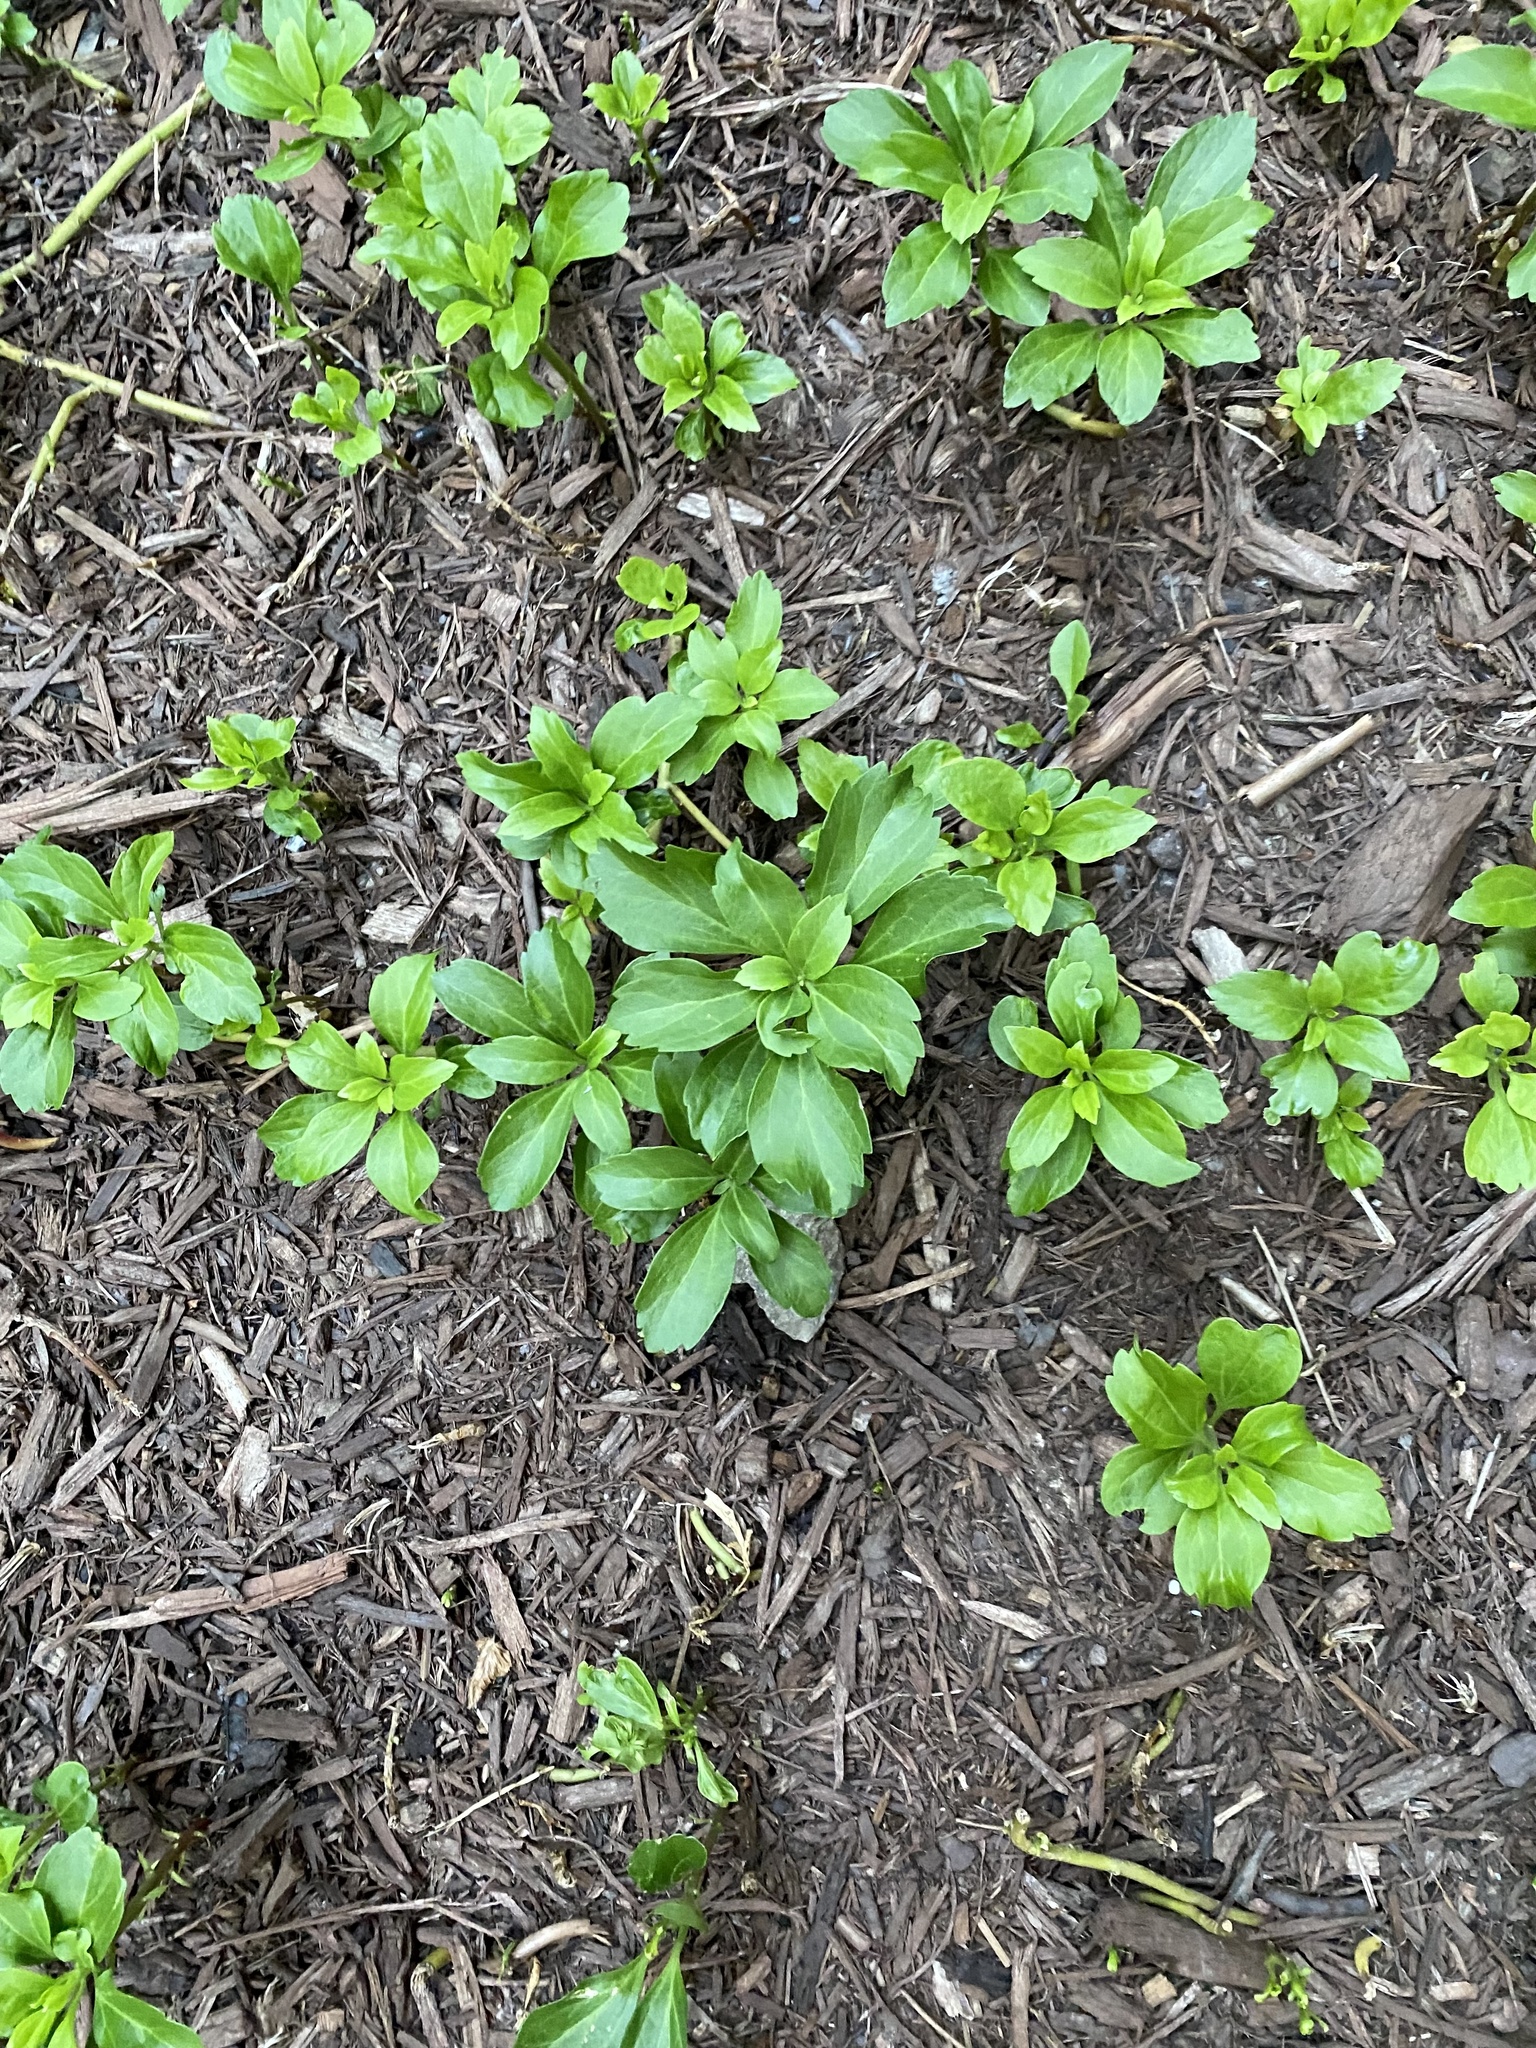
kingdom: Plantae
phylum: Tracheophyta
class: Magnoliopsida
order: Buxales
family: Buxaceae
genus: Pachysandra
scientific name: Pachysandra terminalis
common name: Japanese pachysandra
